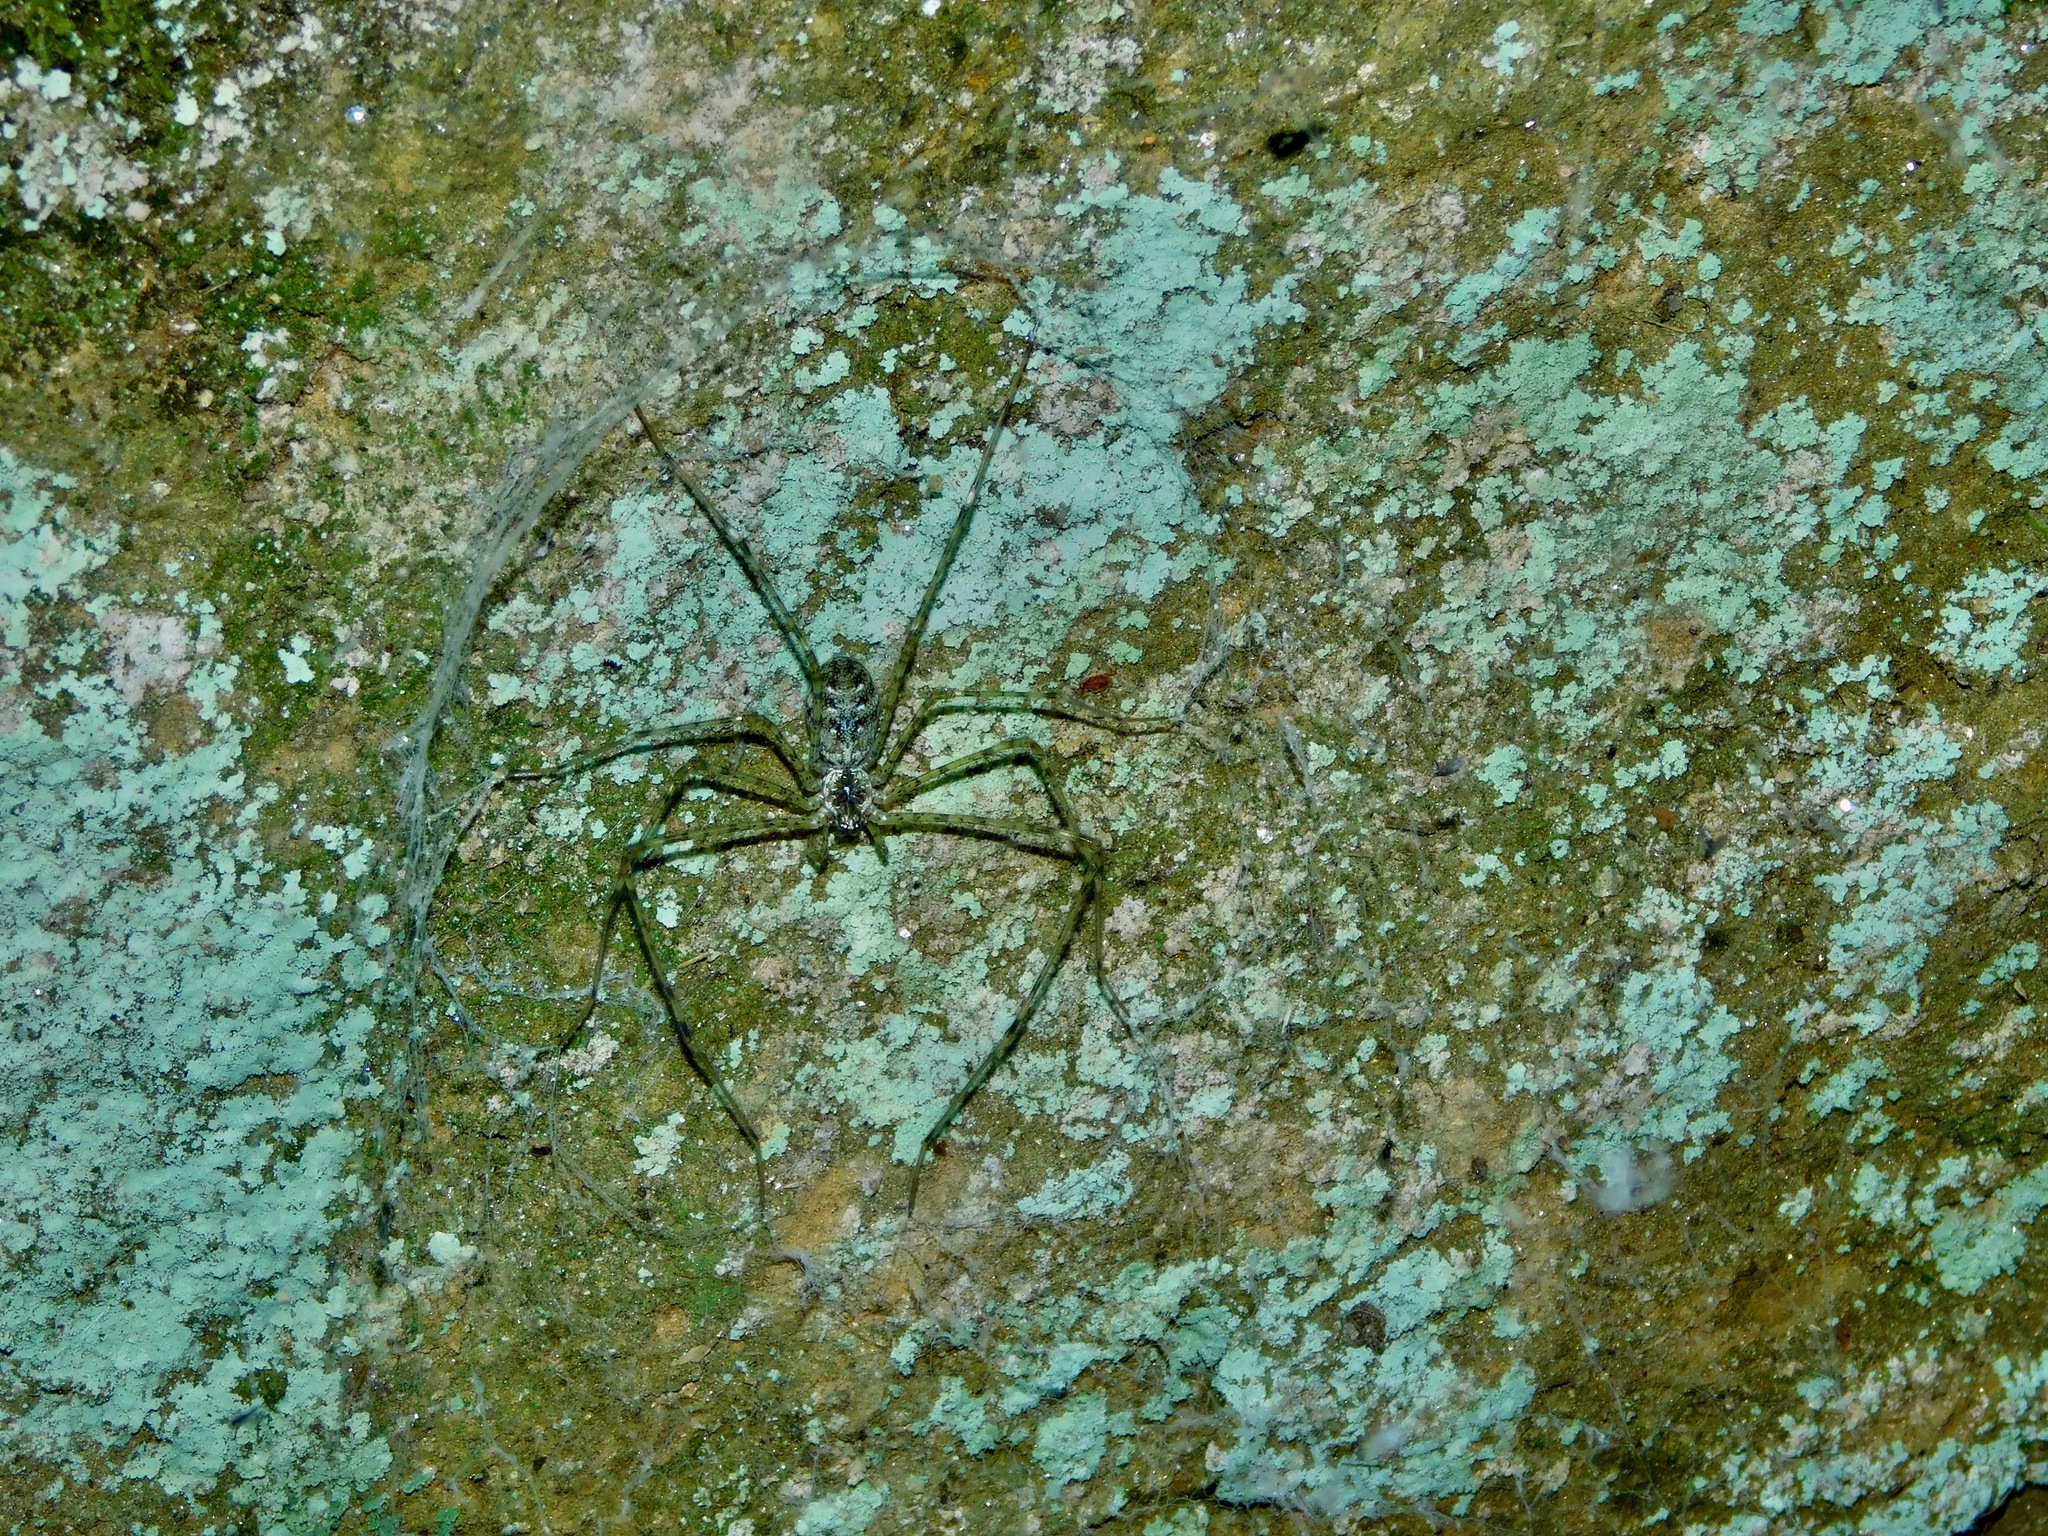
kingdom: Animalia
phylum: Arthropoda
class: Arachnida
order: Araneae
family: Hypochilidae
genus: Hypochilus
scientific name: Hypochilus pococki
